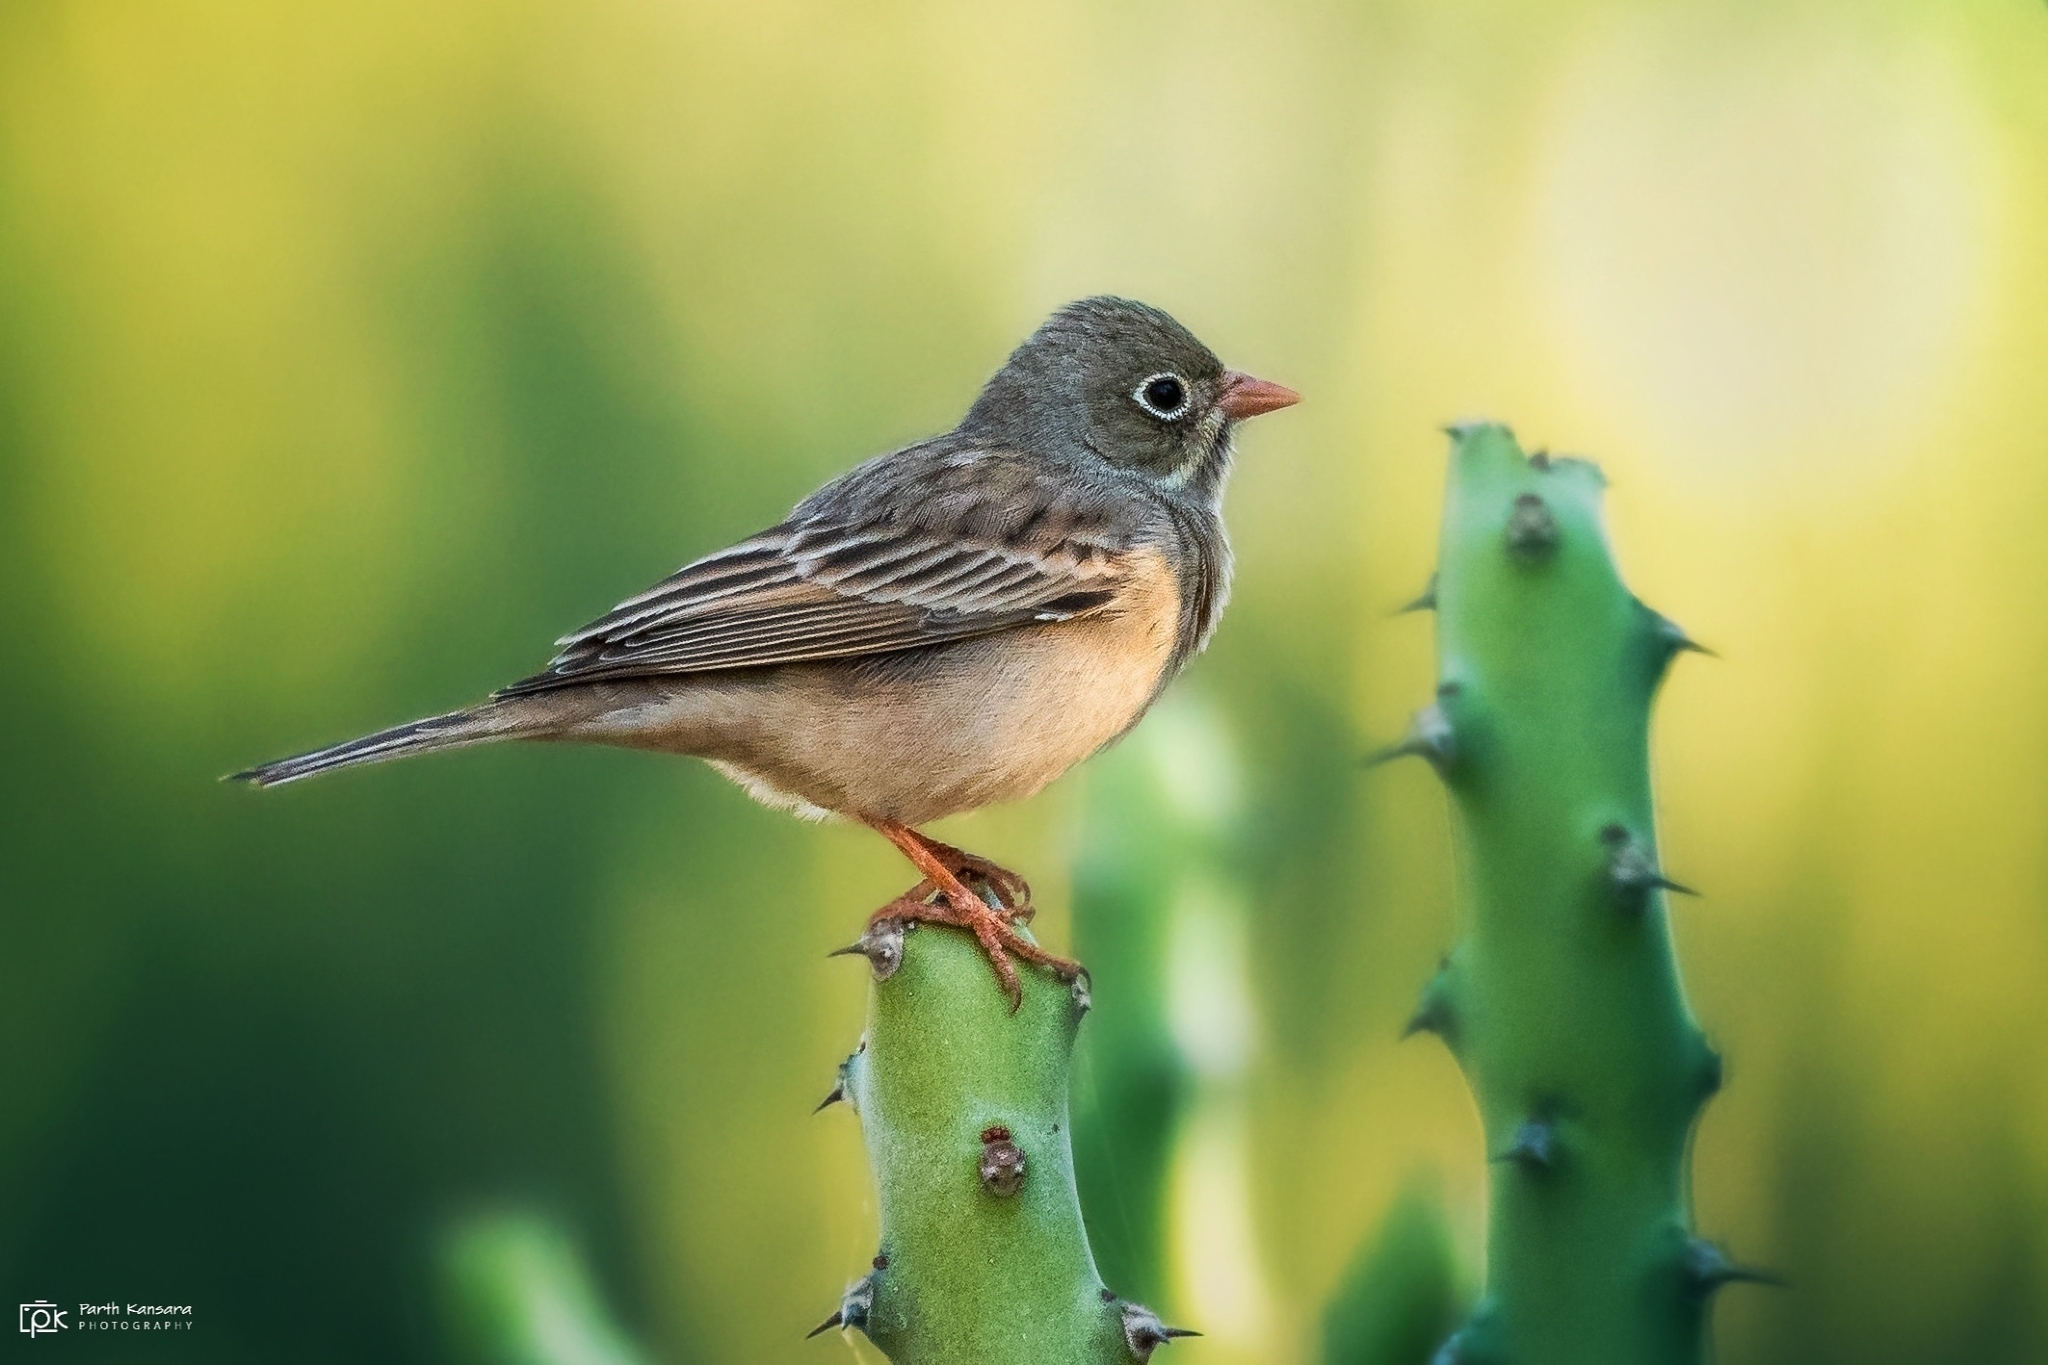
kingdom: Animalia
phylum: Chordata
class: Aves
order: Passeriformes
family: Emberizidae
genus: Emberiza
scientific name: Emberiza buchanani
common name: Grey-necked bunting
